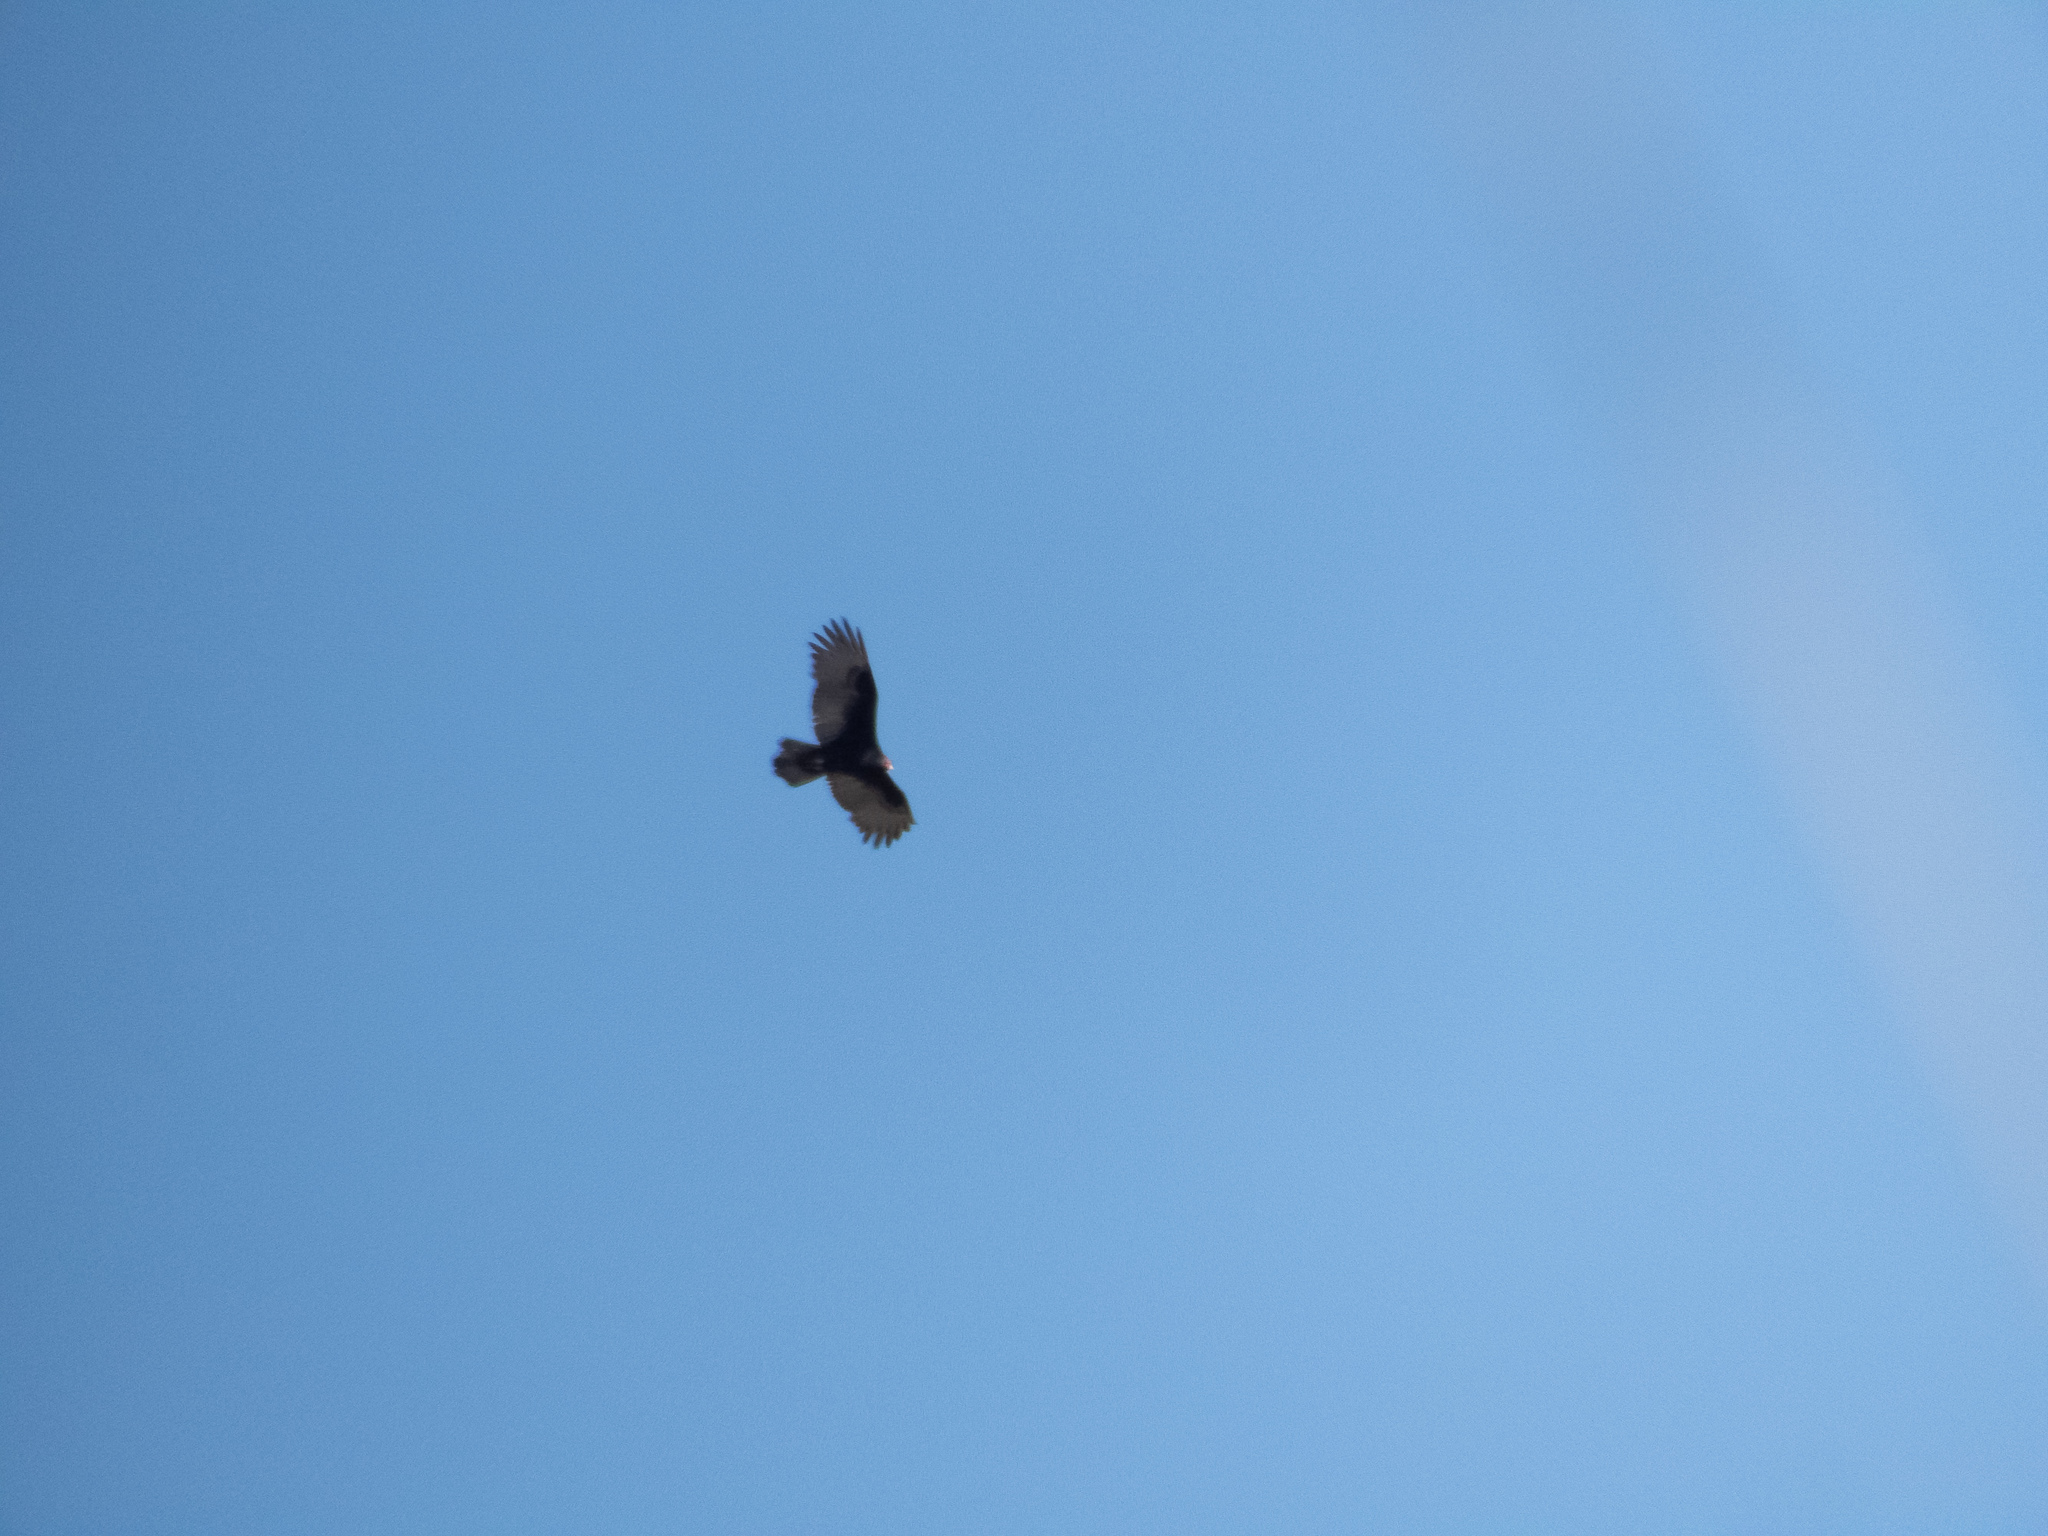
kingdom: Animalia
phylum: Chordata
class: Aves
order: Accipitriformes
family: Cathartidae
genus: Cathartes
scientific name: Cathartes aura
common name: Turkey vulture
